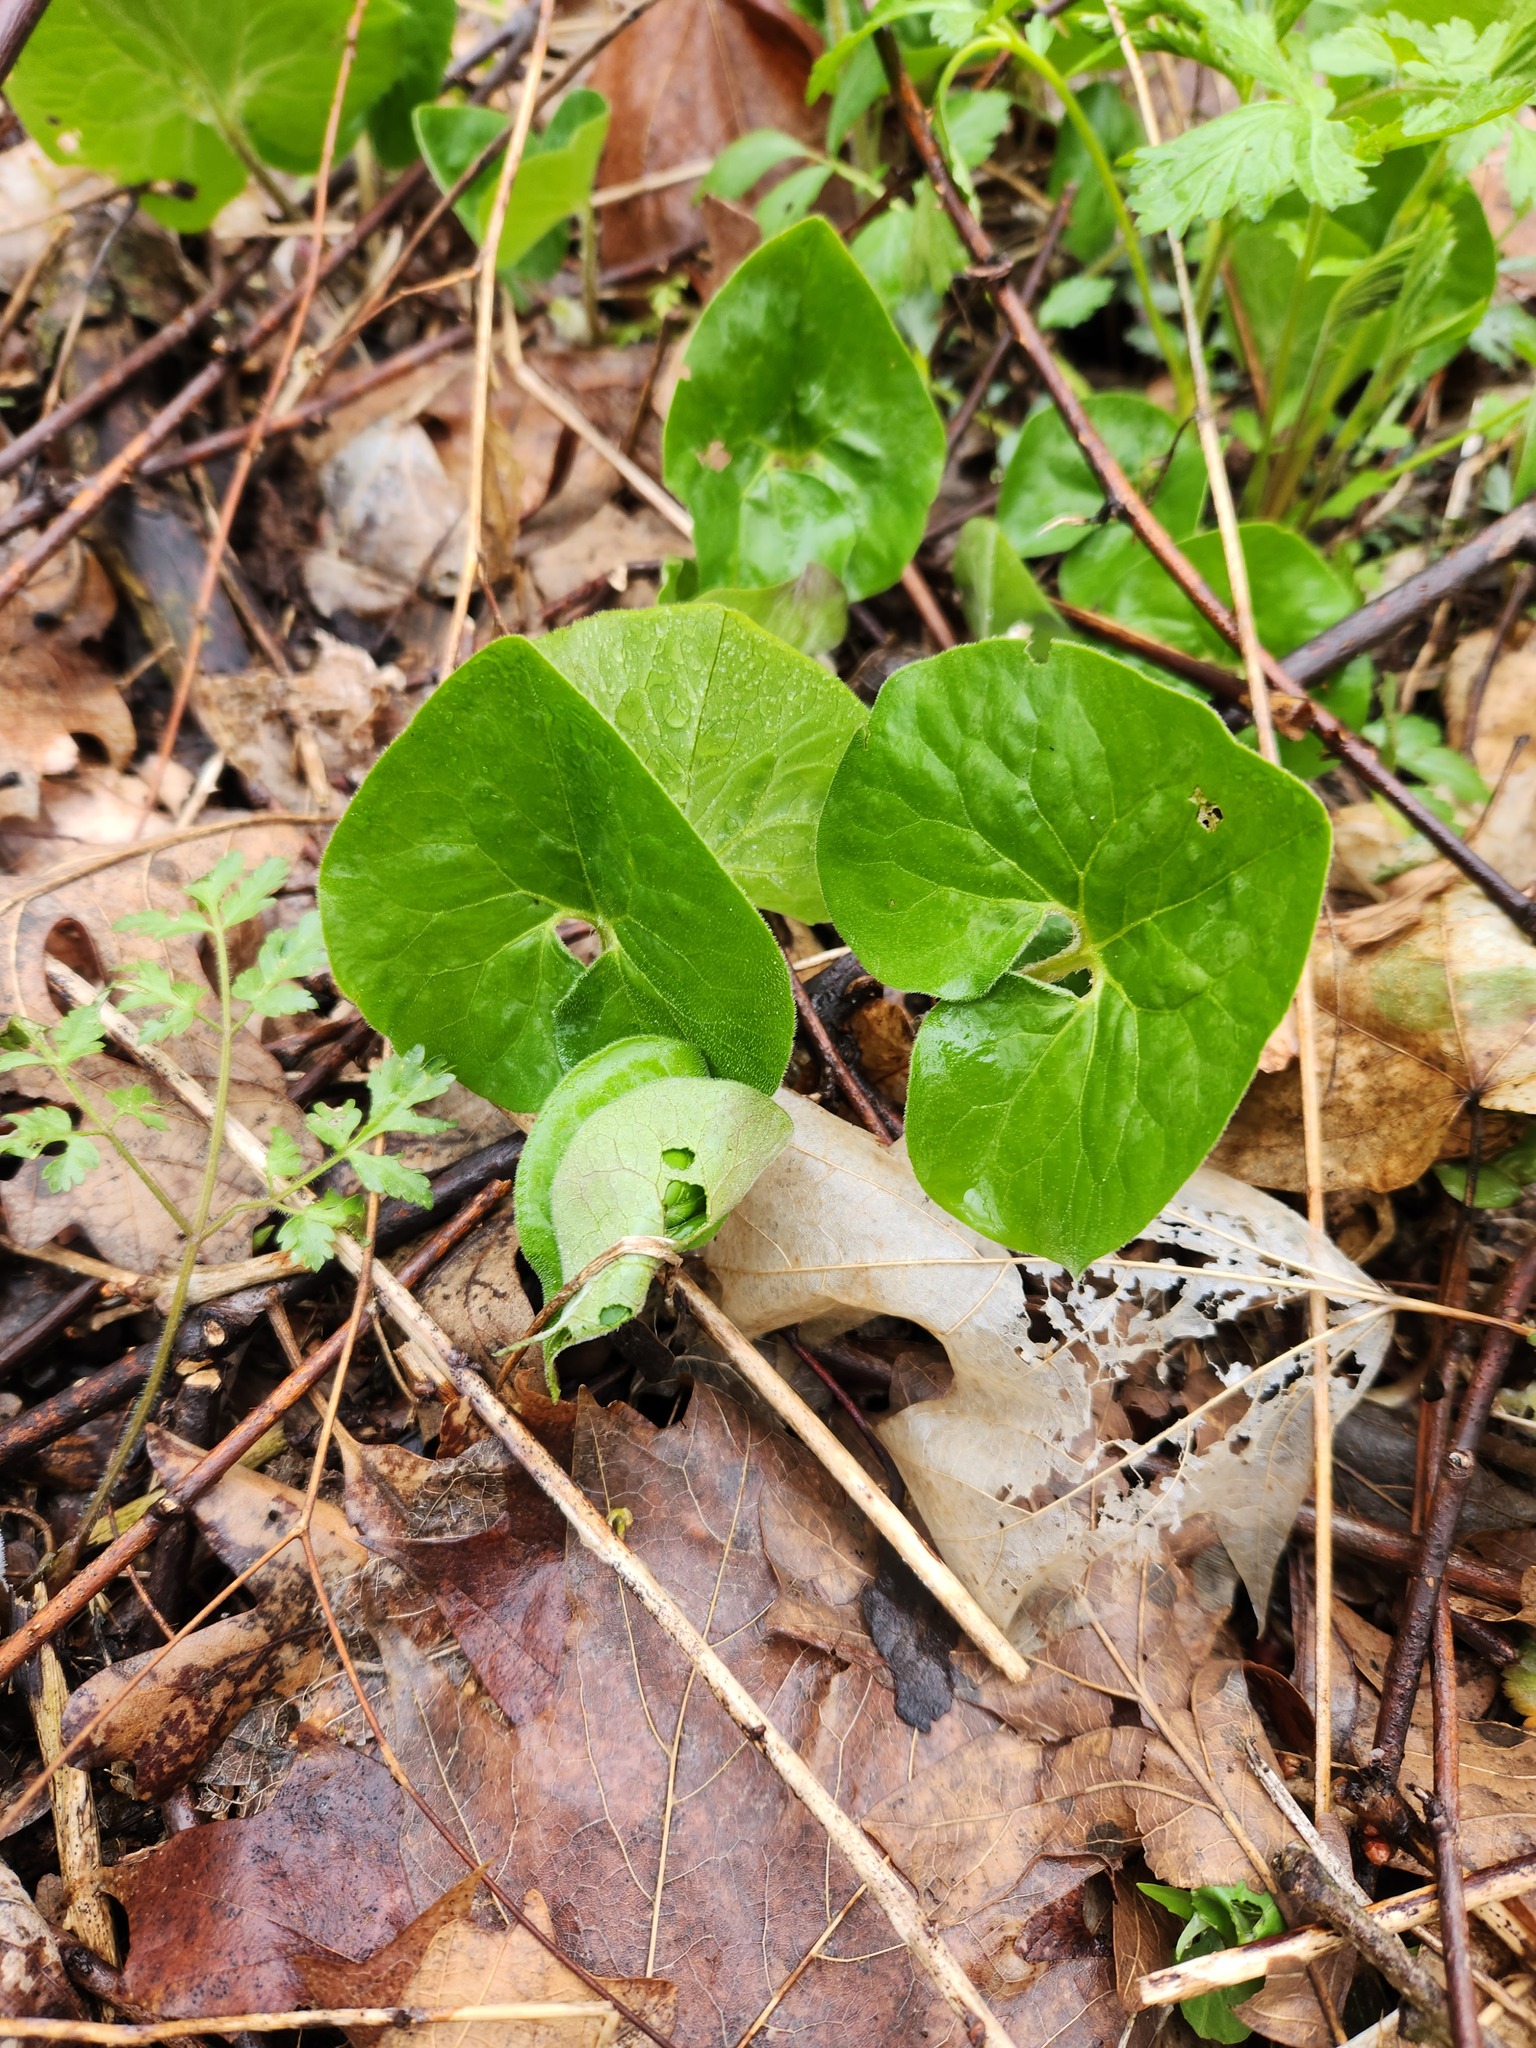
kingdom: Plantae
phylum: Tracheophyta
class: Magnoliopsida
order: Piperales
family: Aristolochiaceae
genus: Asarum
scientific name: Asarum canadense
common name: Wild ginger
